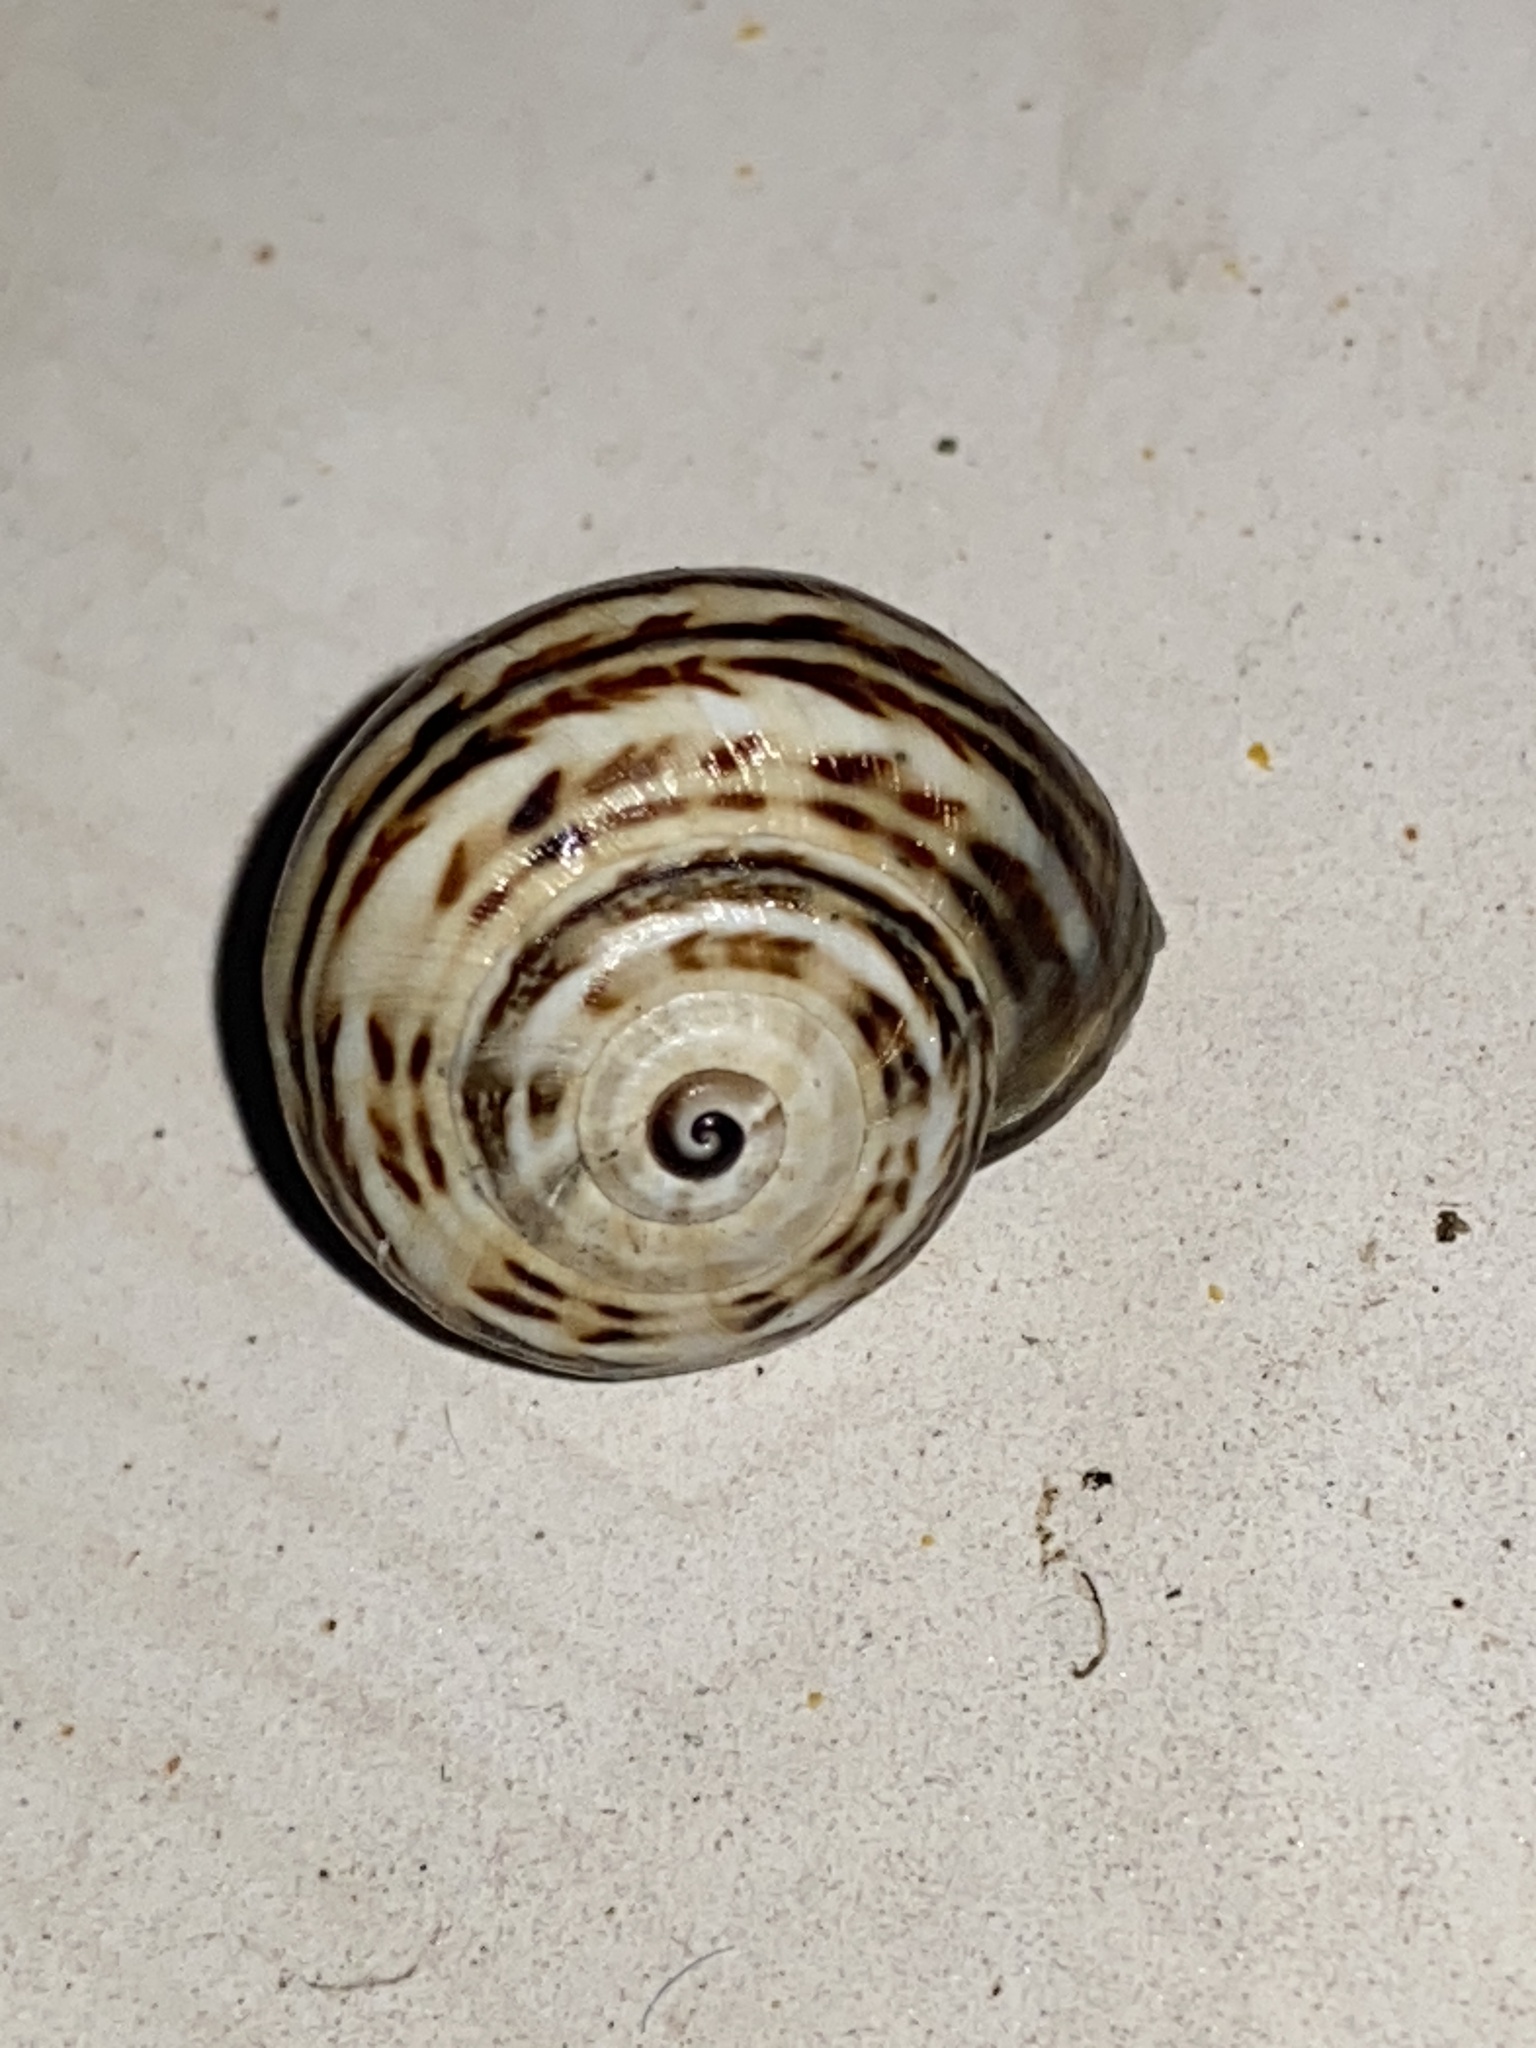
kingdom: Animalia
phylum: Mollusca
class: Gastropoda
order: Stylommatophora
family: Helicidae
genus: Theba
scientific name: Theba pisana
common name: White snail
